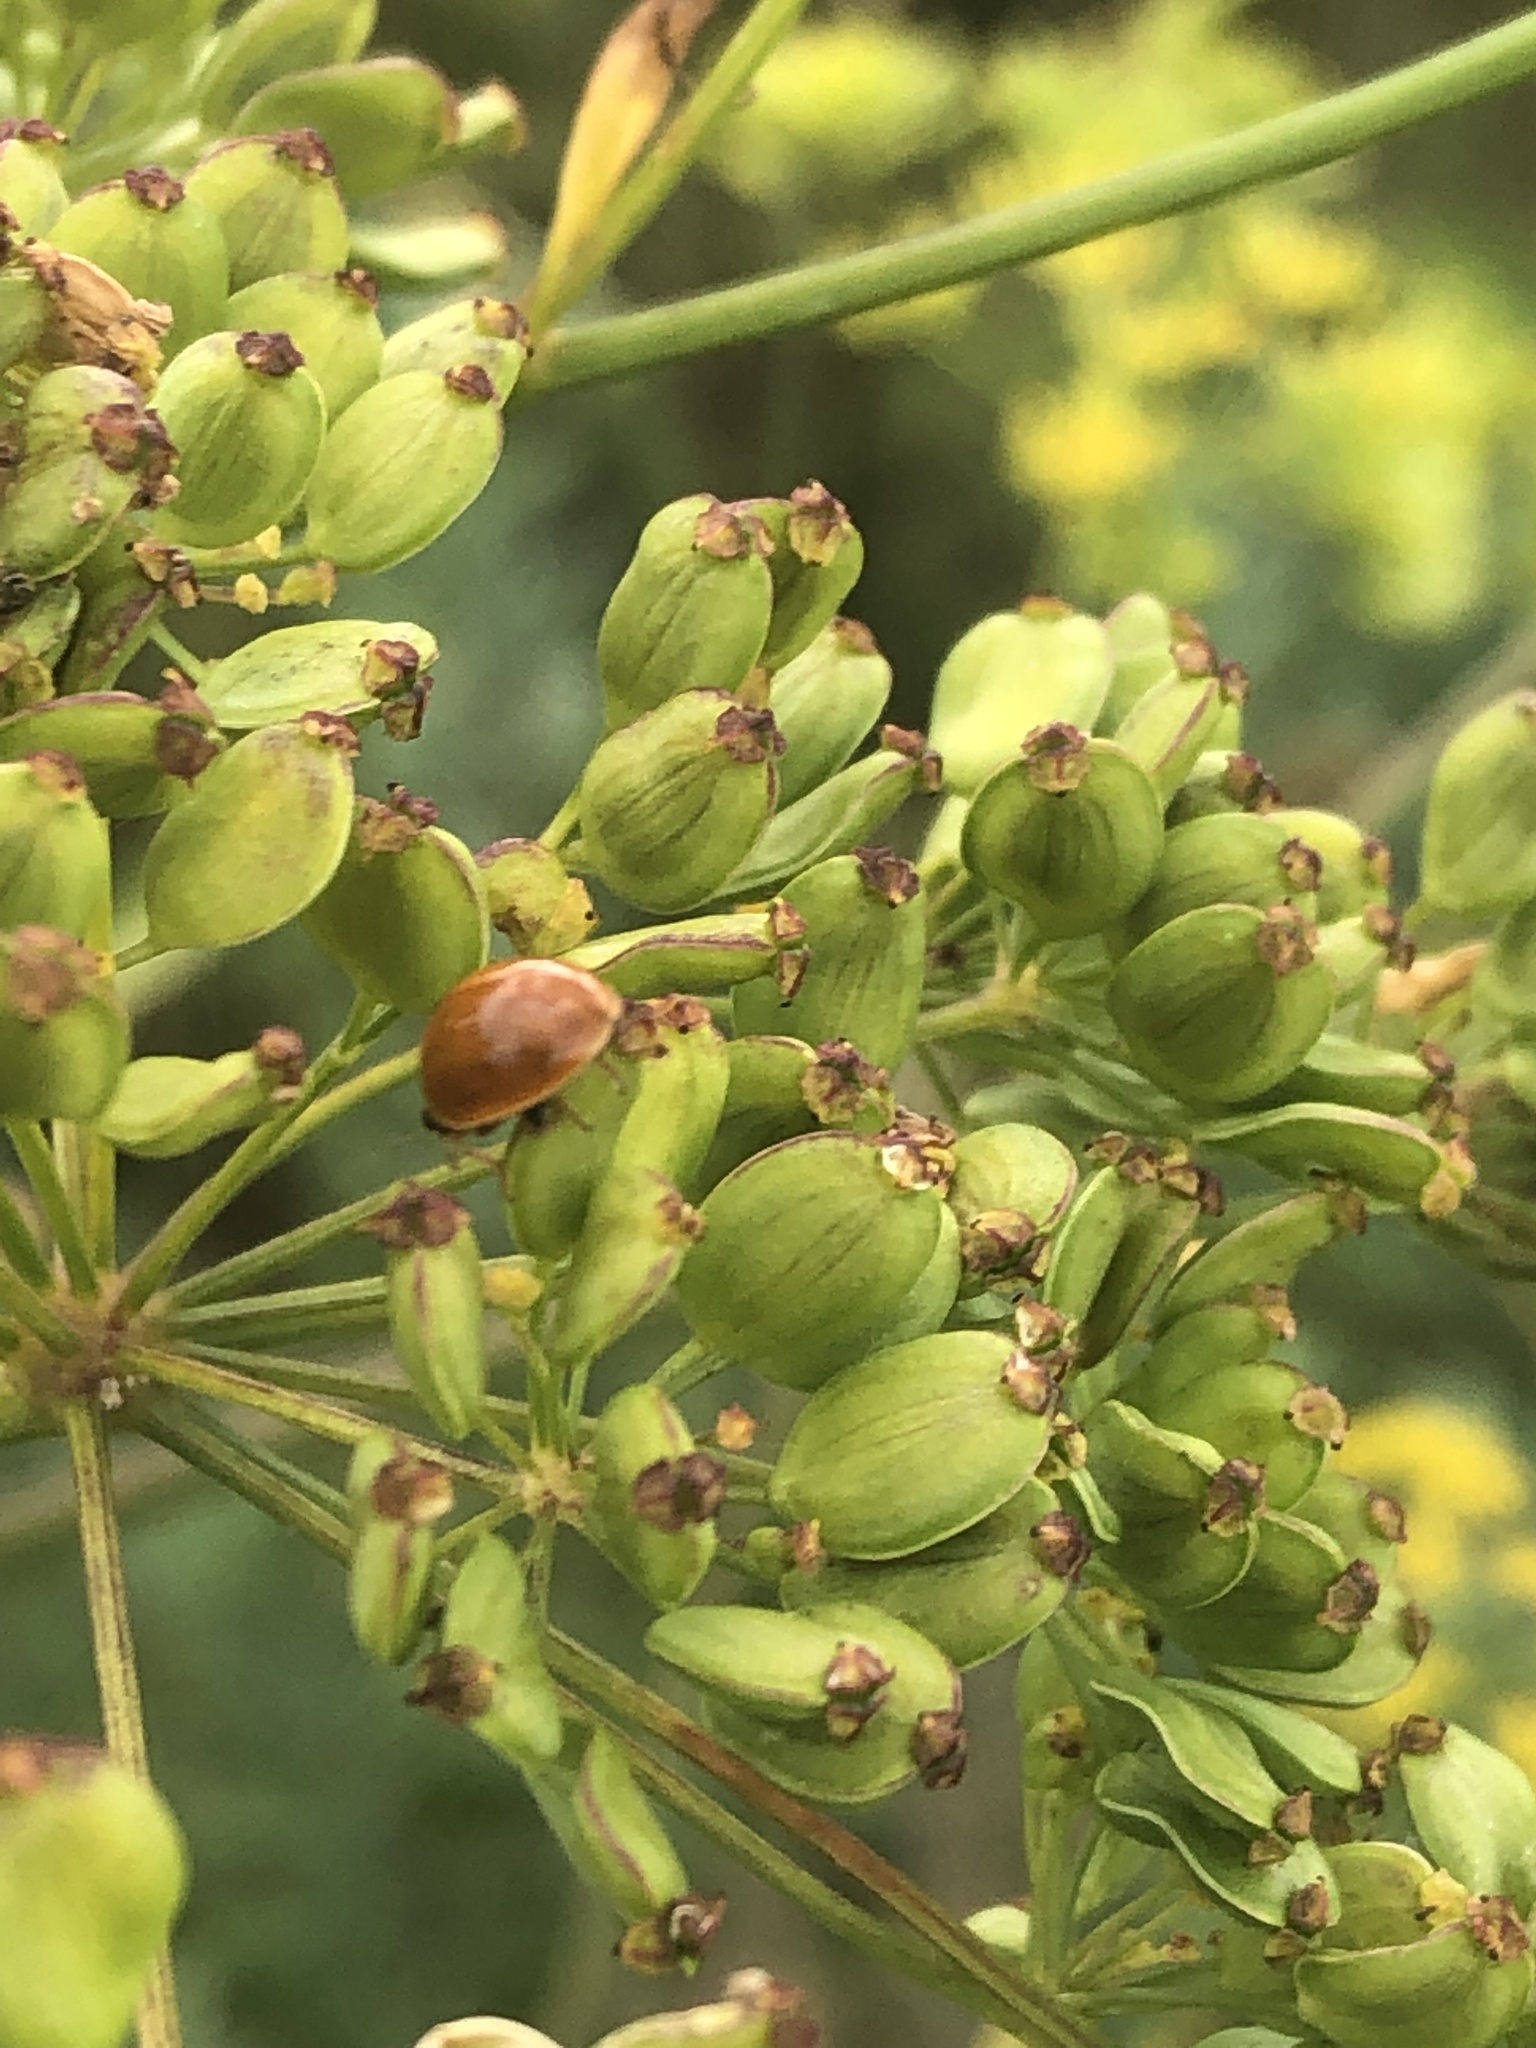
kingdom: Animalia
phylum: Arthropoda
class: Insecta
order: Coleoptera
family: Coccinellidae
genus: Cycloneda
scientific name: Cycloneda munda
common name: Polished lady beetle
